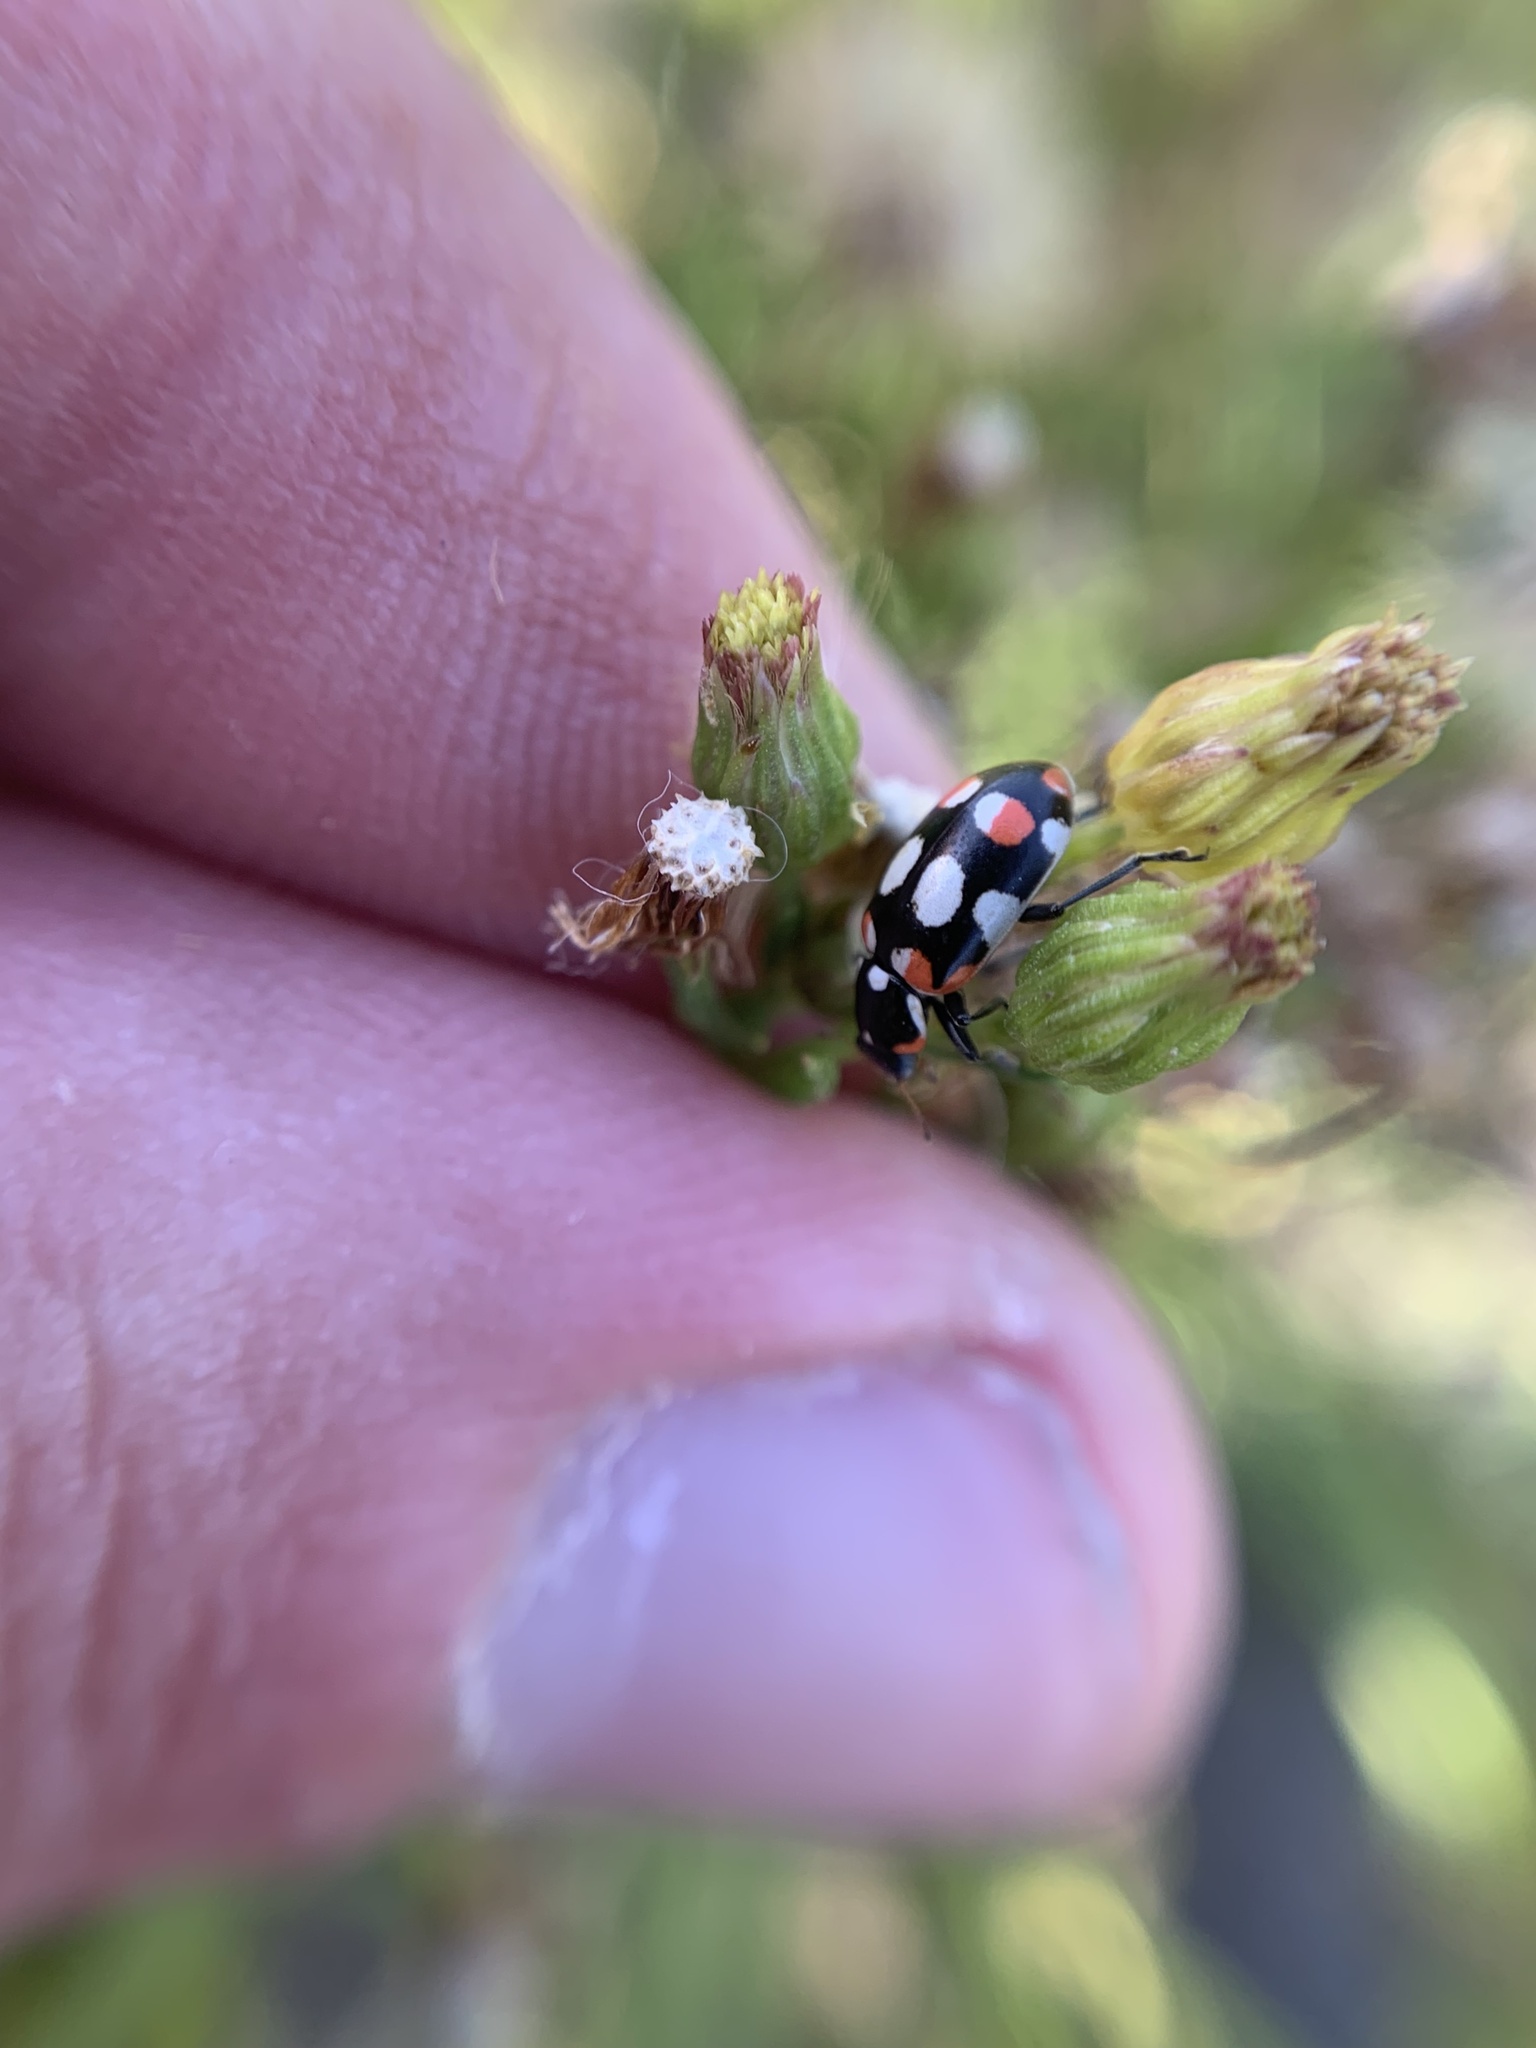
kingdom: Animalia
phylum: Arthropoda
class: Insecta
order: Coleoptera
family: Coccinellidae
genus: Eriopis
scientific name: Eriopis connexa
